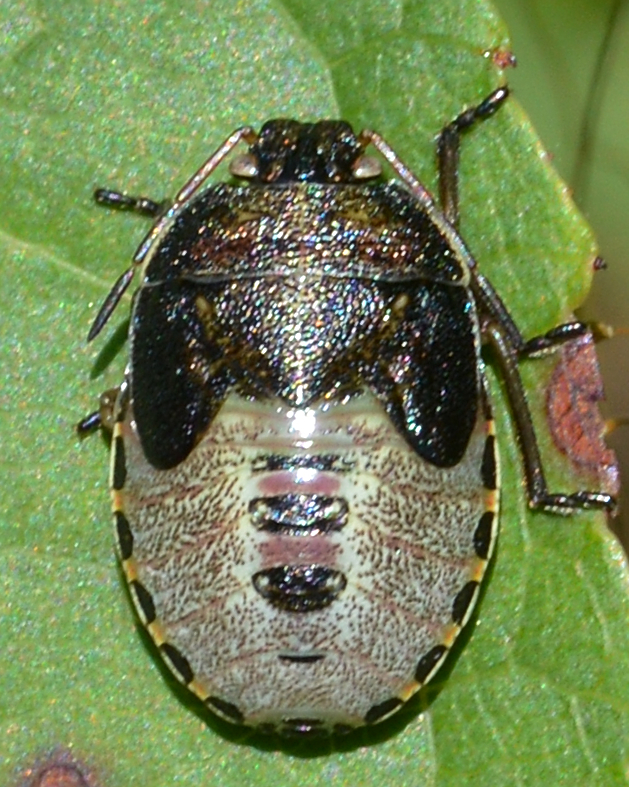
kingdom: Animalia
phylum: Arthropoda
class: Insecta
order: Hemiptera
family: Pentatomidae
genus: Piezodorus
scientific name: Piezodorus lituratus
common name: Stink bug
